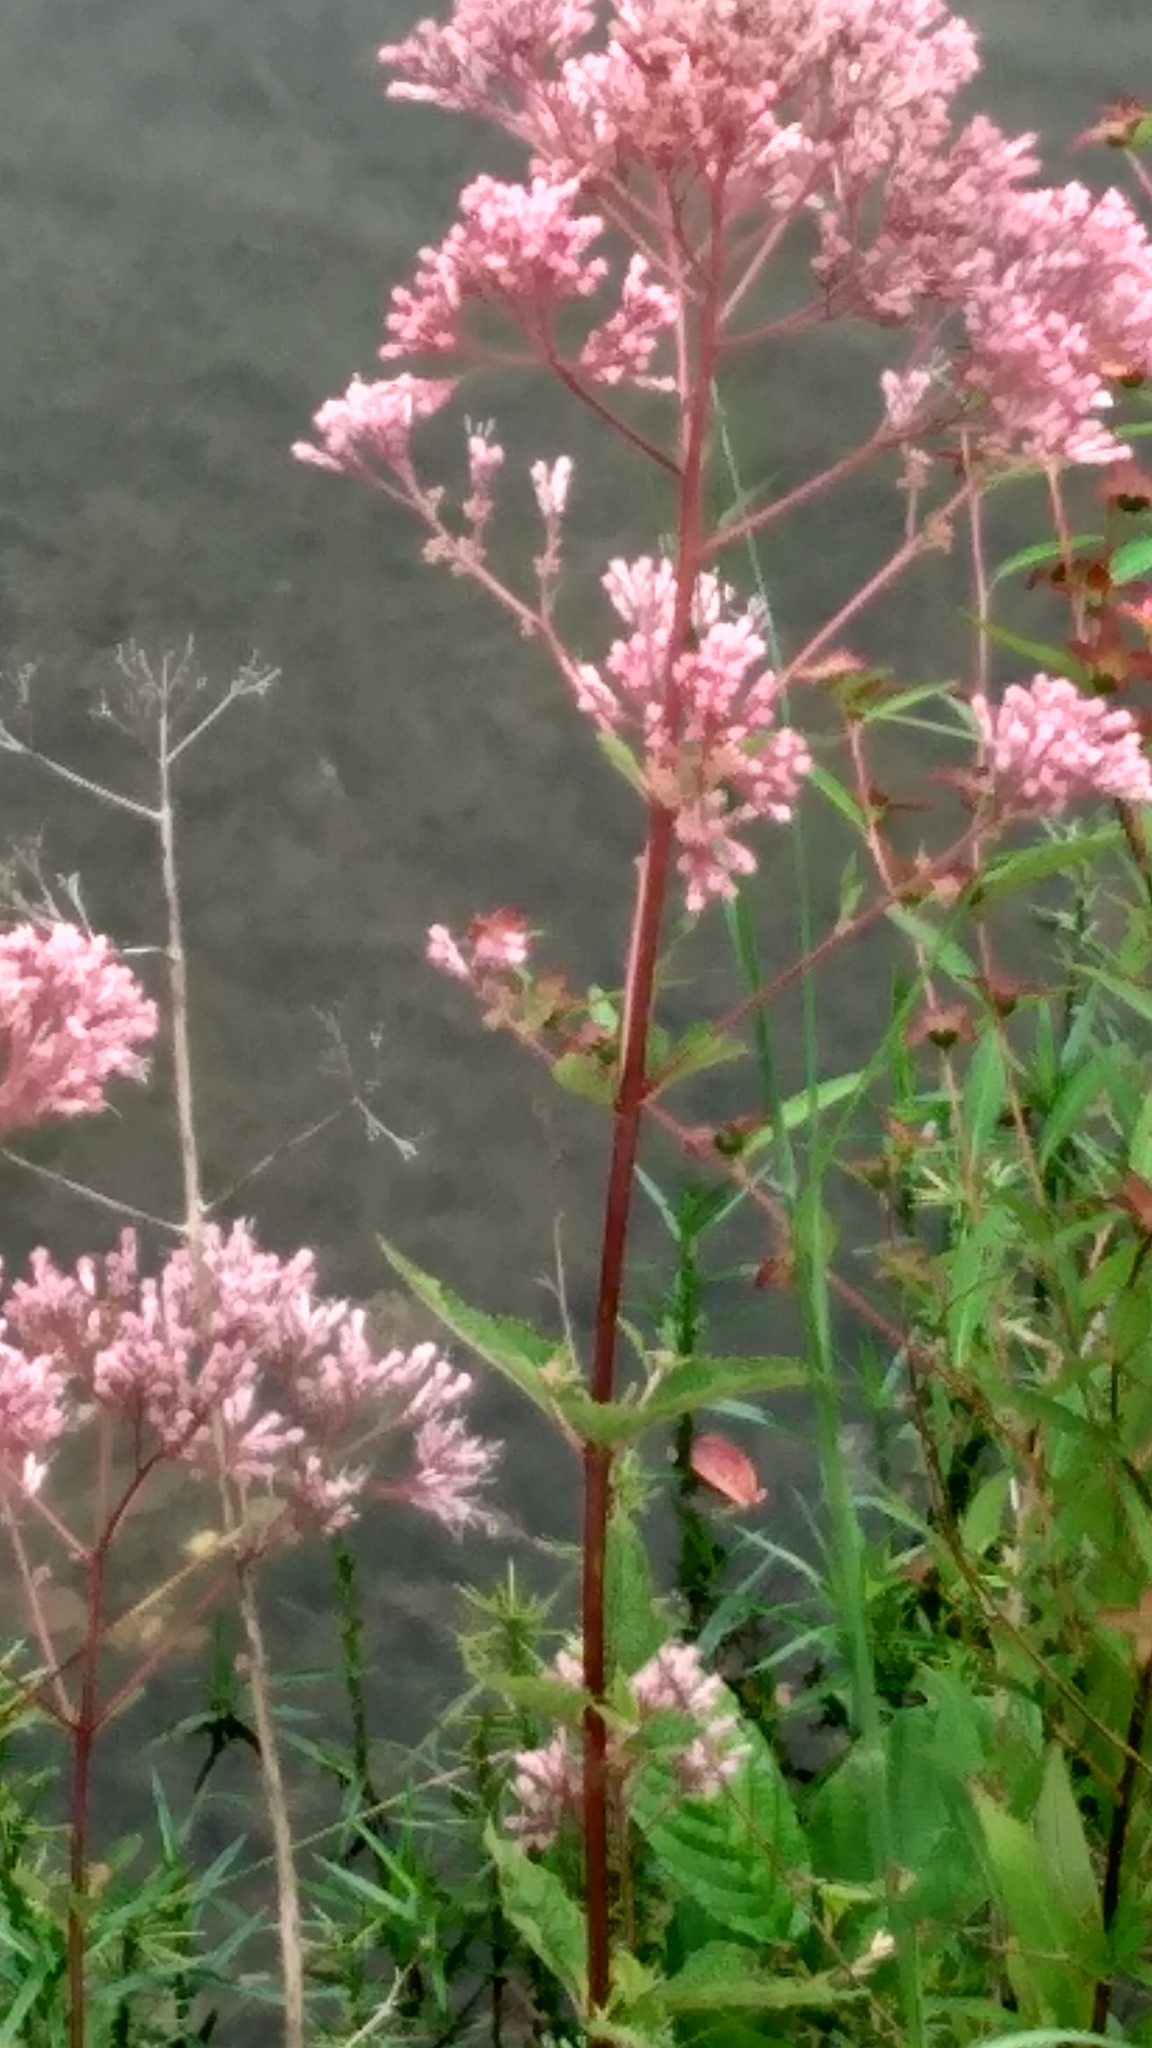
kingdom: Plantae
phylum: Tracheophyta
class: Magnoliopsida
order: Asterales
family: Asteraceae
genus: Eutrochium
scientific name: Eutrochium dubium
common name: Coastal plain joe pye weed
